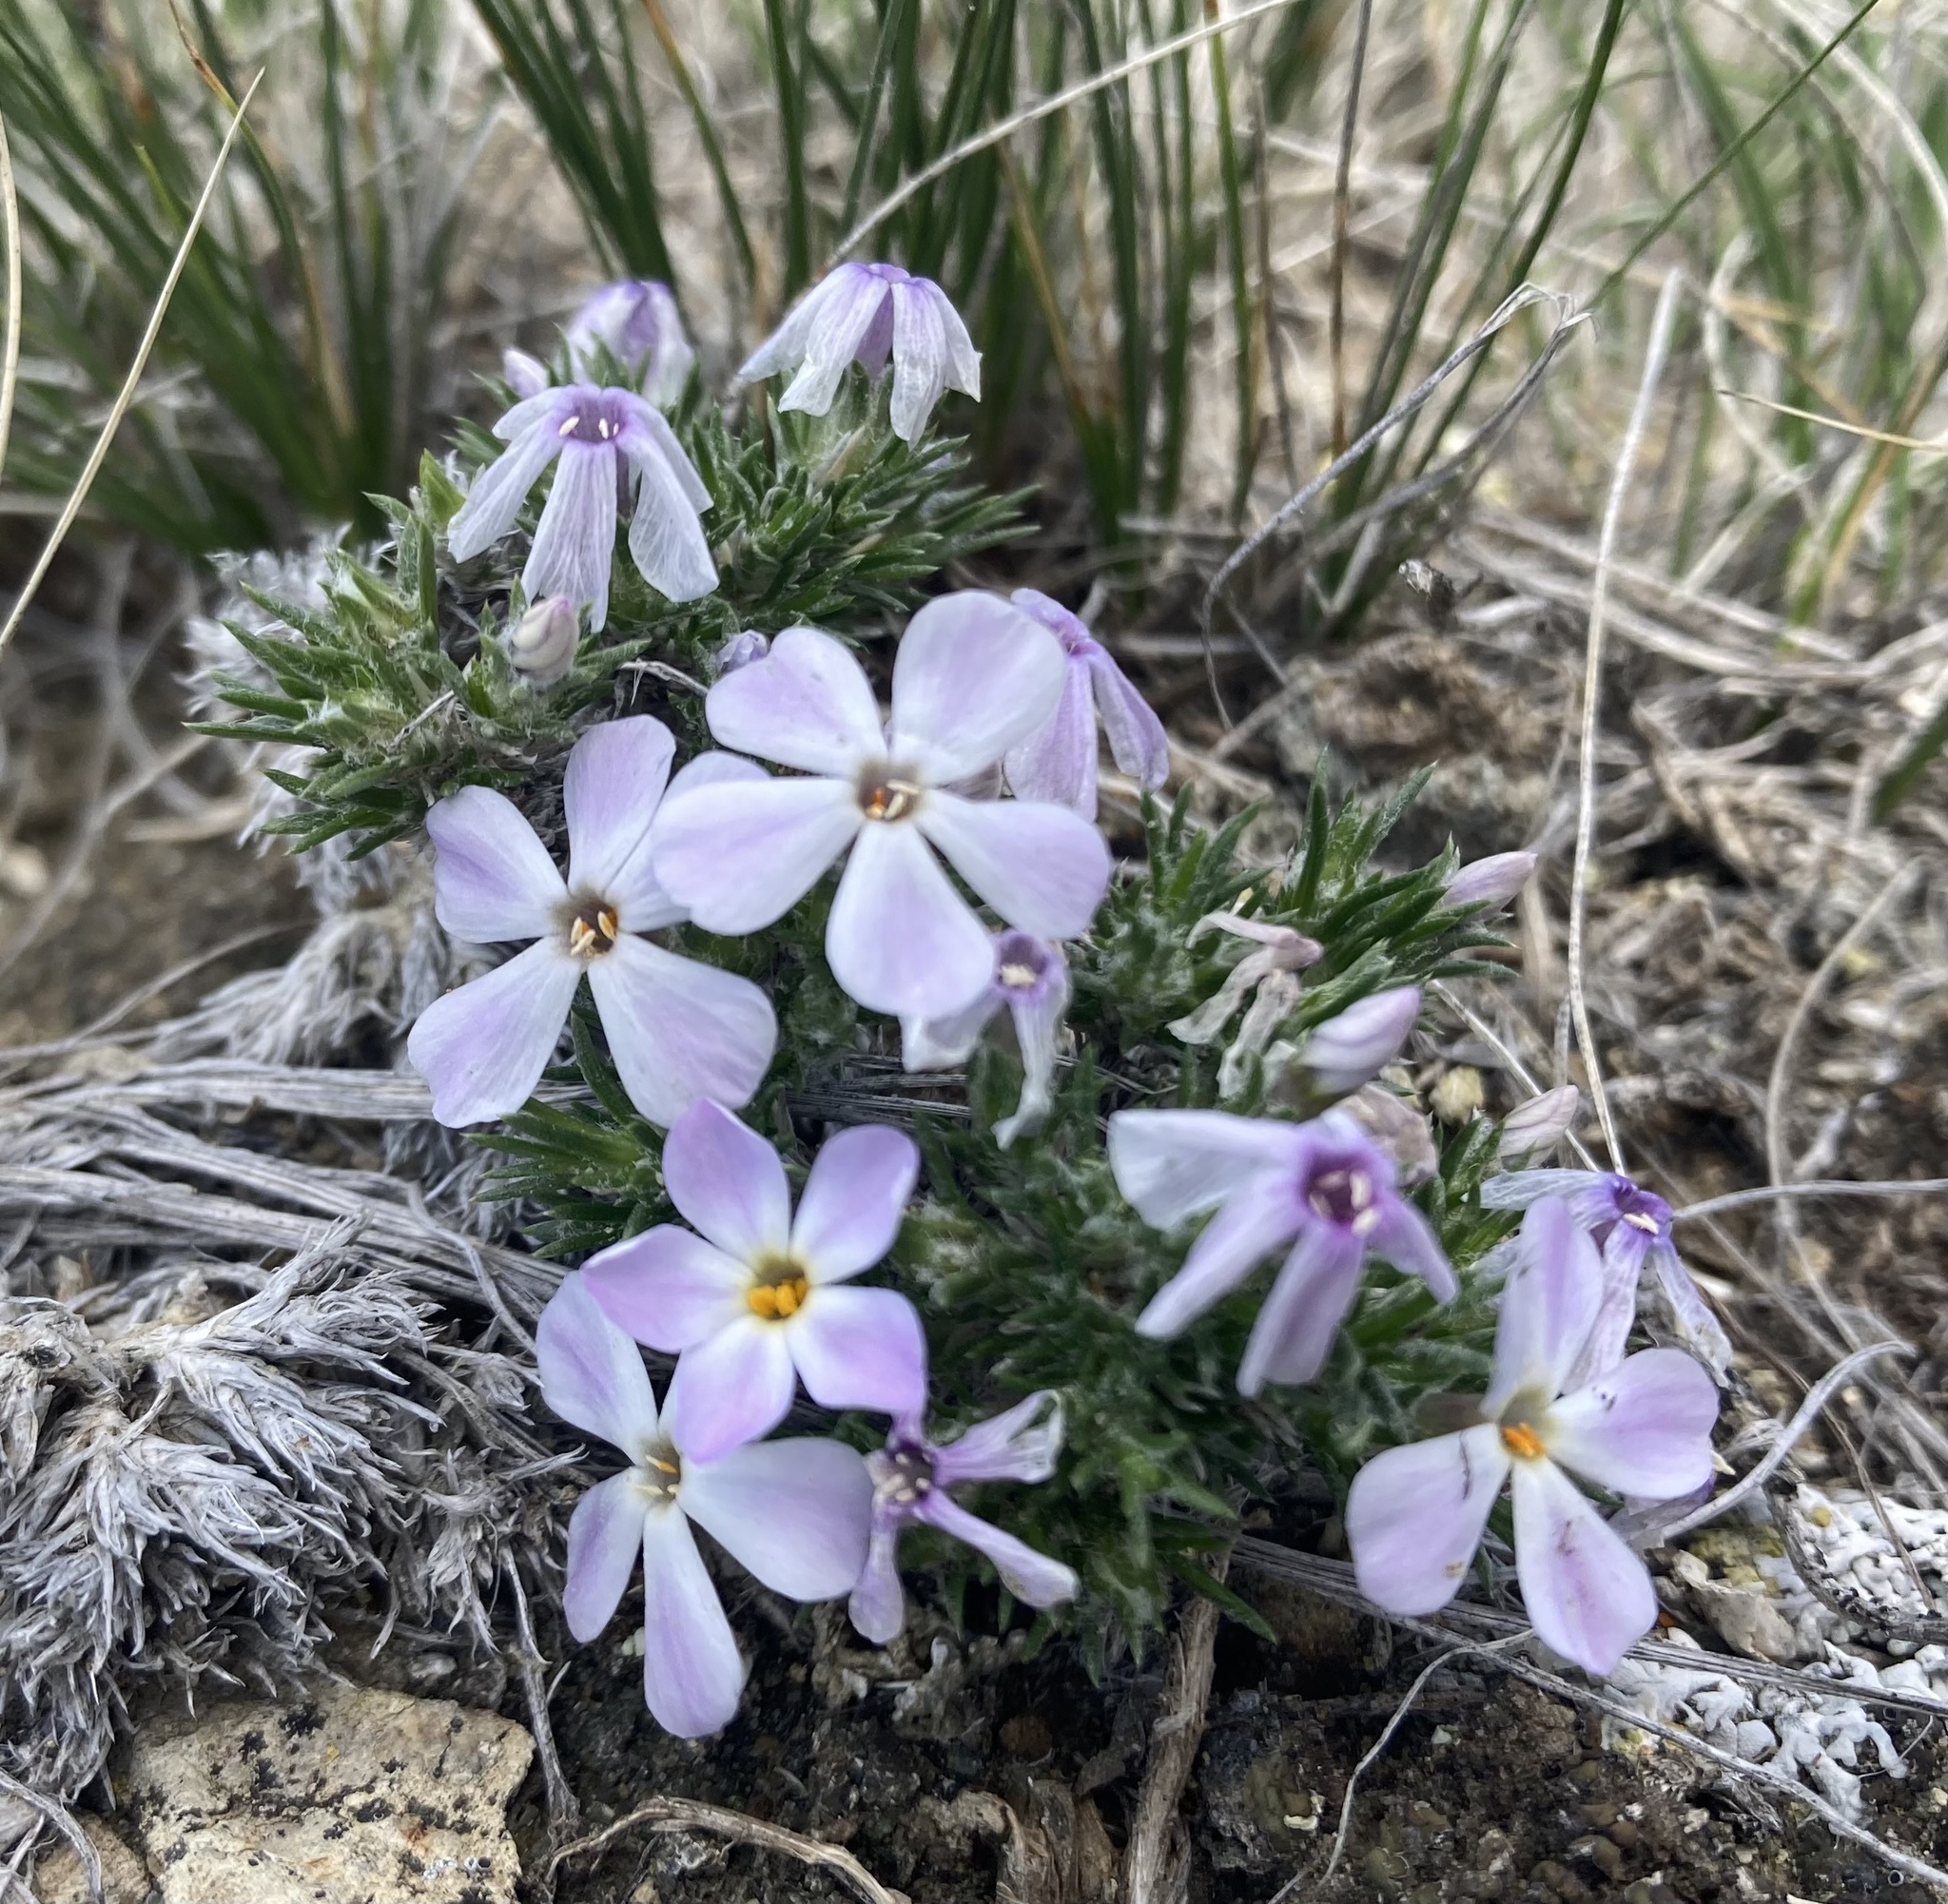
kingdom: Plantae
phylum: Tracheophyta
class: Magnoliopsida
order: Ericales
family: Polemoniaceae
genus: Phlox
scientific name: Phlox hoodii
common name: Moss phlox
